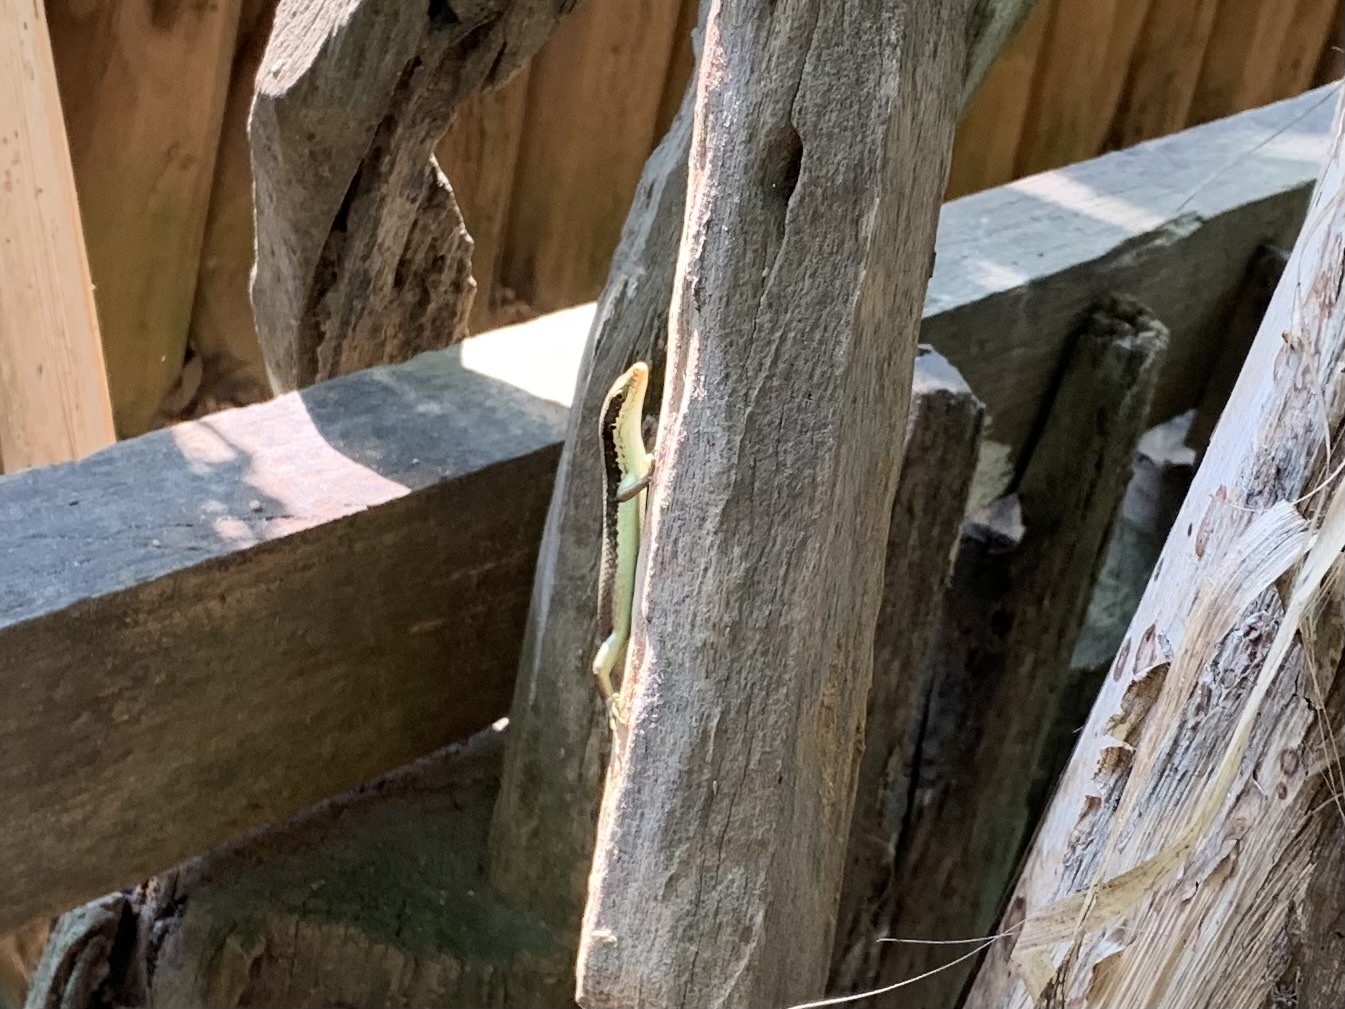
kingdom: Animalia
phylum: Chordata
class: Squamata
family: Scincidae
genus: Eutropis
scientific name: Eutropis longicaudata
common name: Long-tailed sun skink
